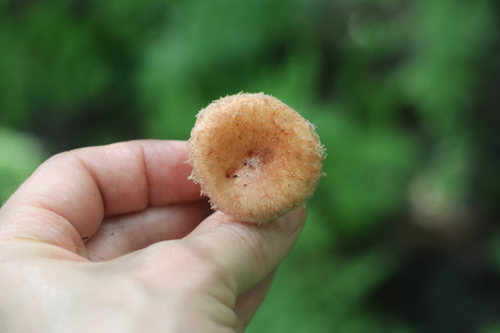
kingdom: Fungi
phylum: Basidiomycota
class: Agaricomycetes
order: Russulales
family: Russulaceae
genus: Lactarius
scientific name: Lactarius torminosus
